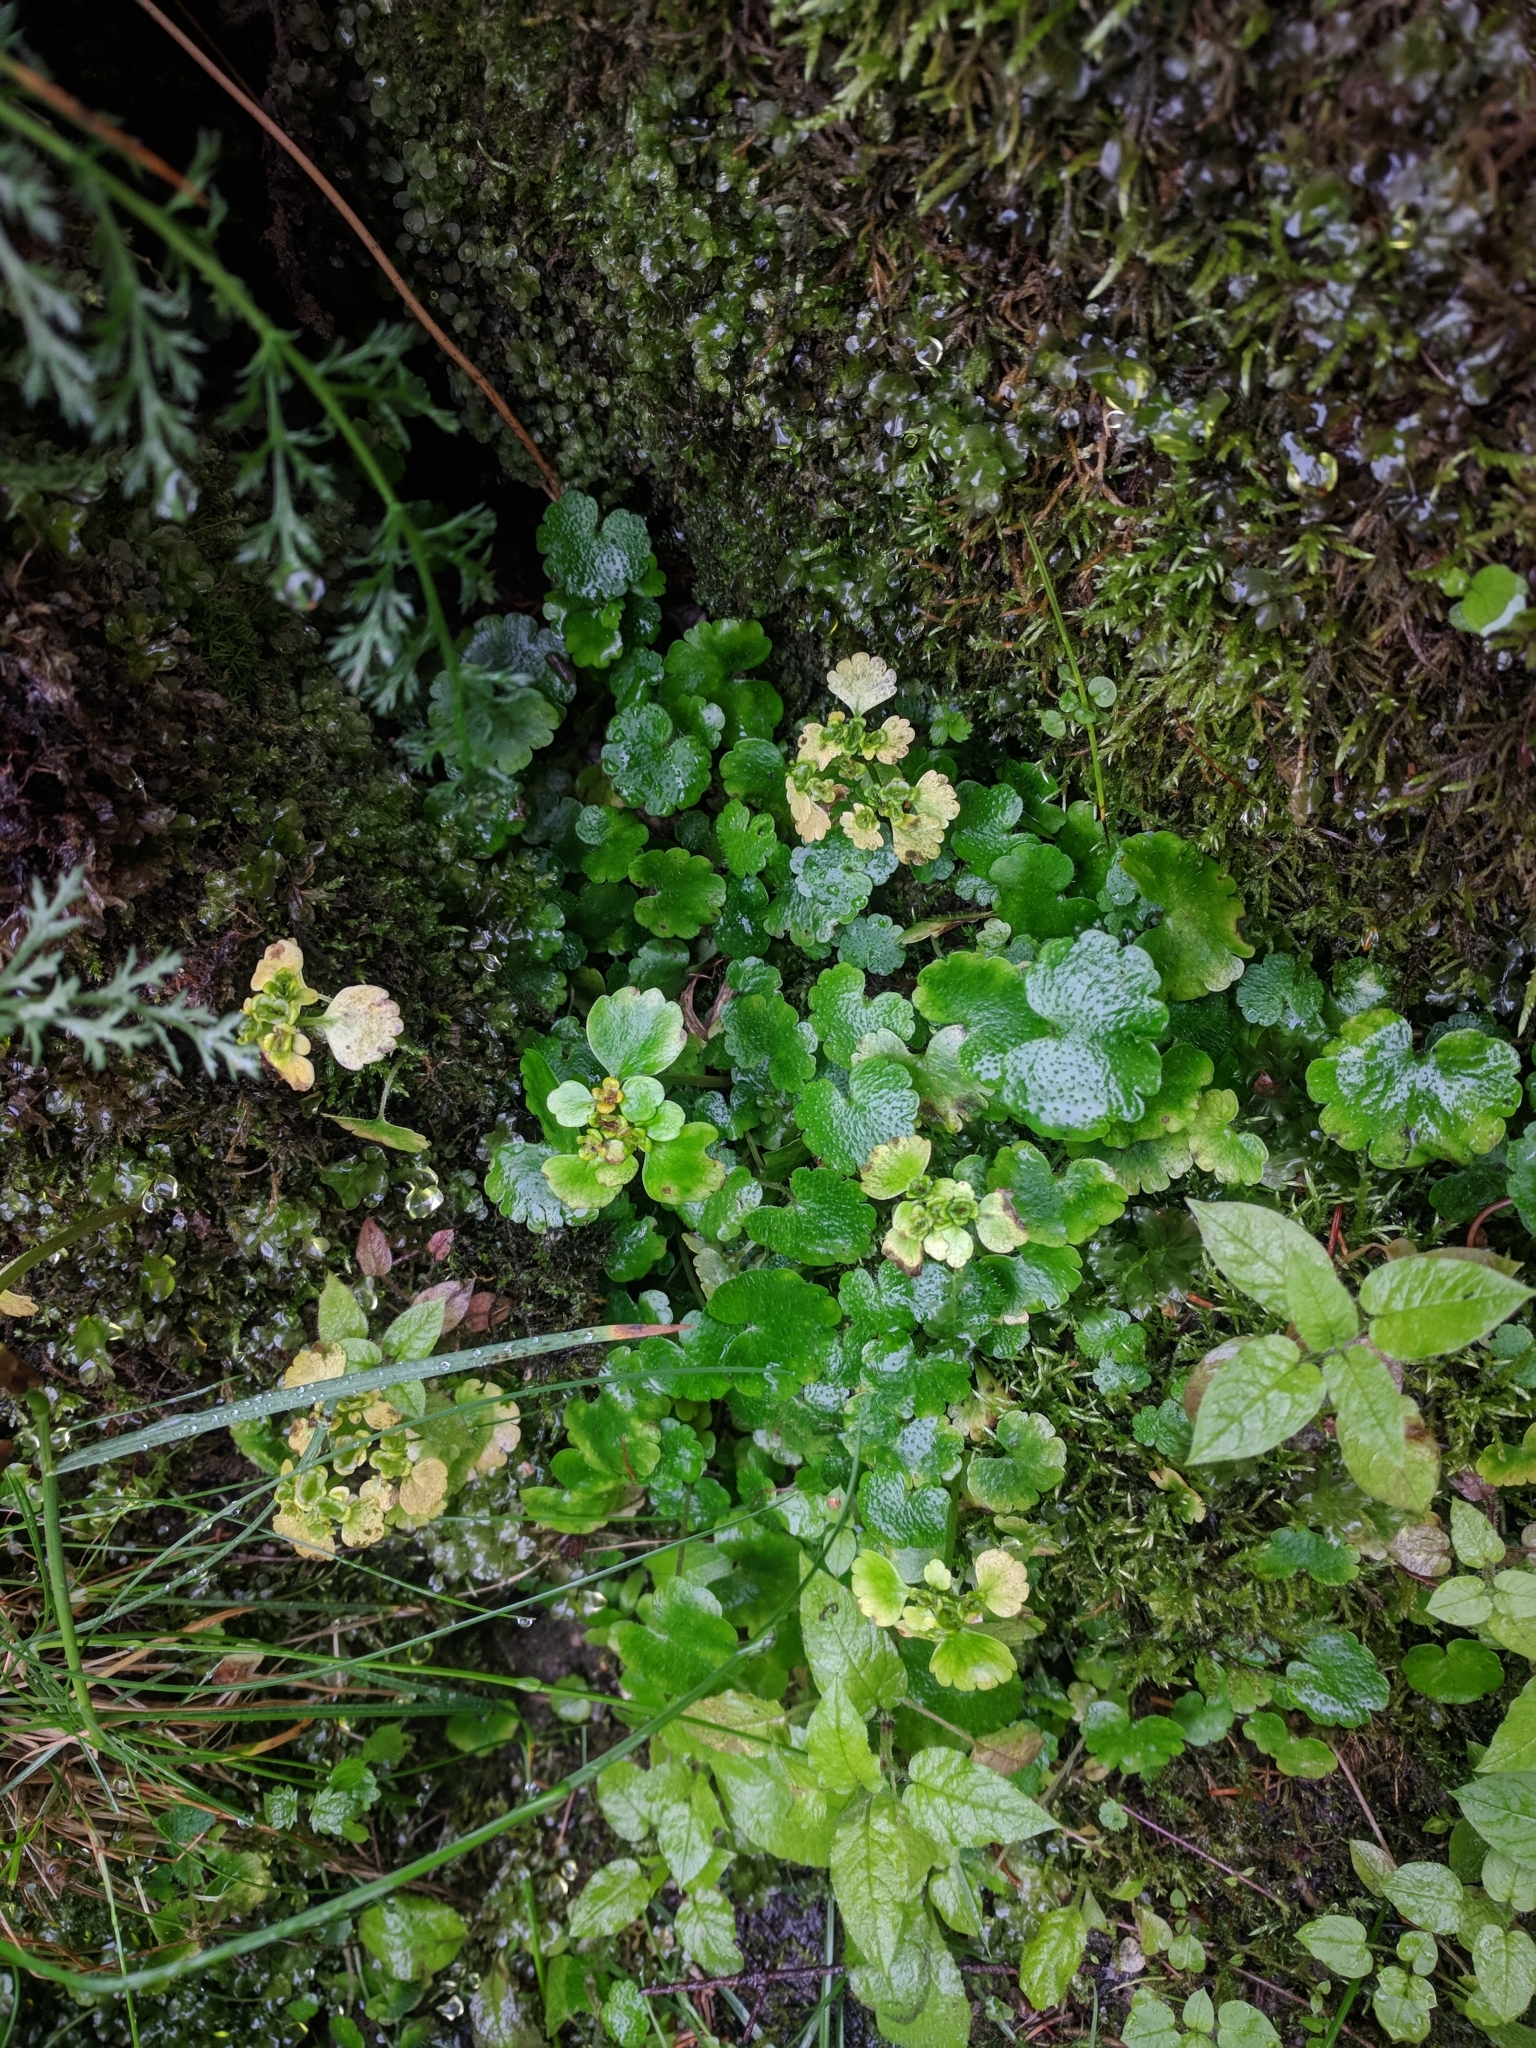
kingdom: Plantae
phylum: Tracheophyta
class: Magnoliopsida
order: Saxifragales
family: Saxifragaceae
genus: Chrysosplenium
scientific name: Chrysosplenium alternifolium
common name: Alternate-leaved golden-saxifrage
